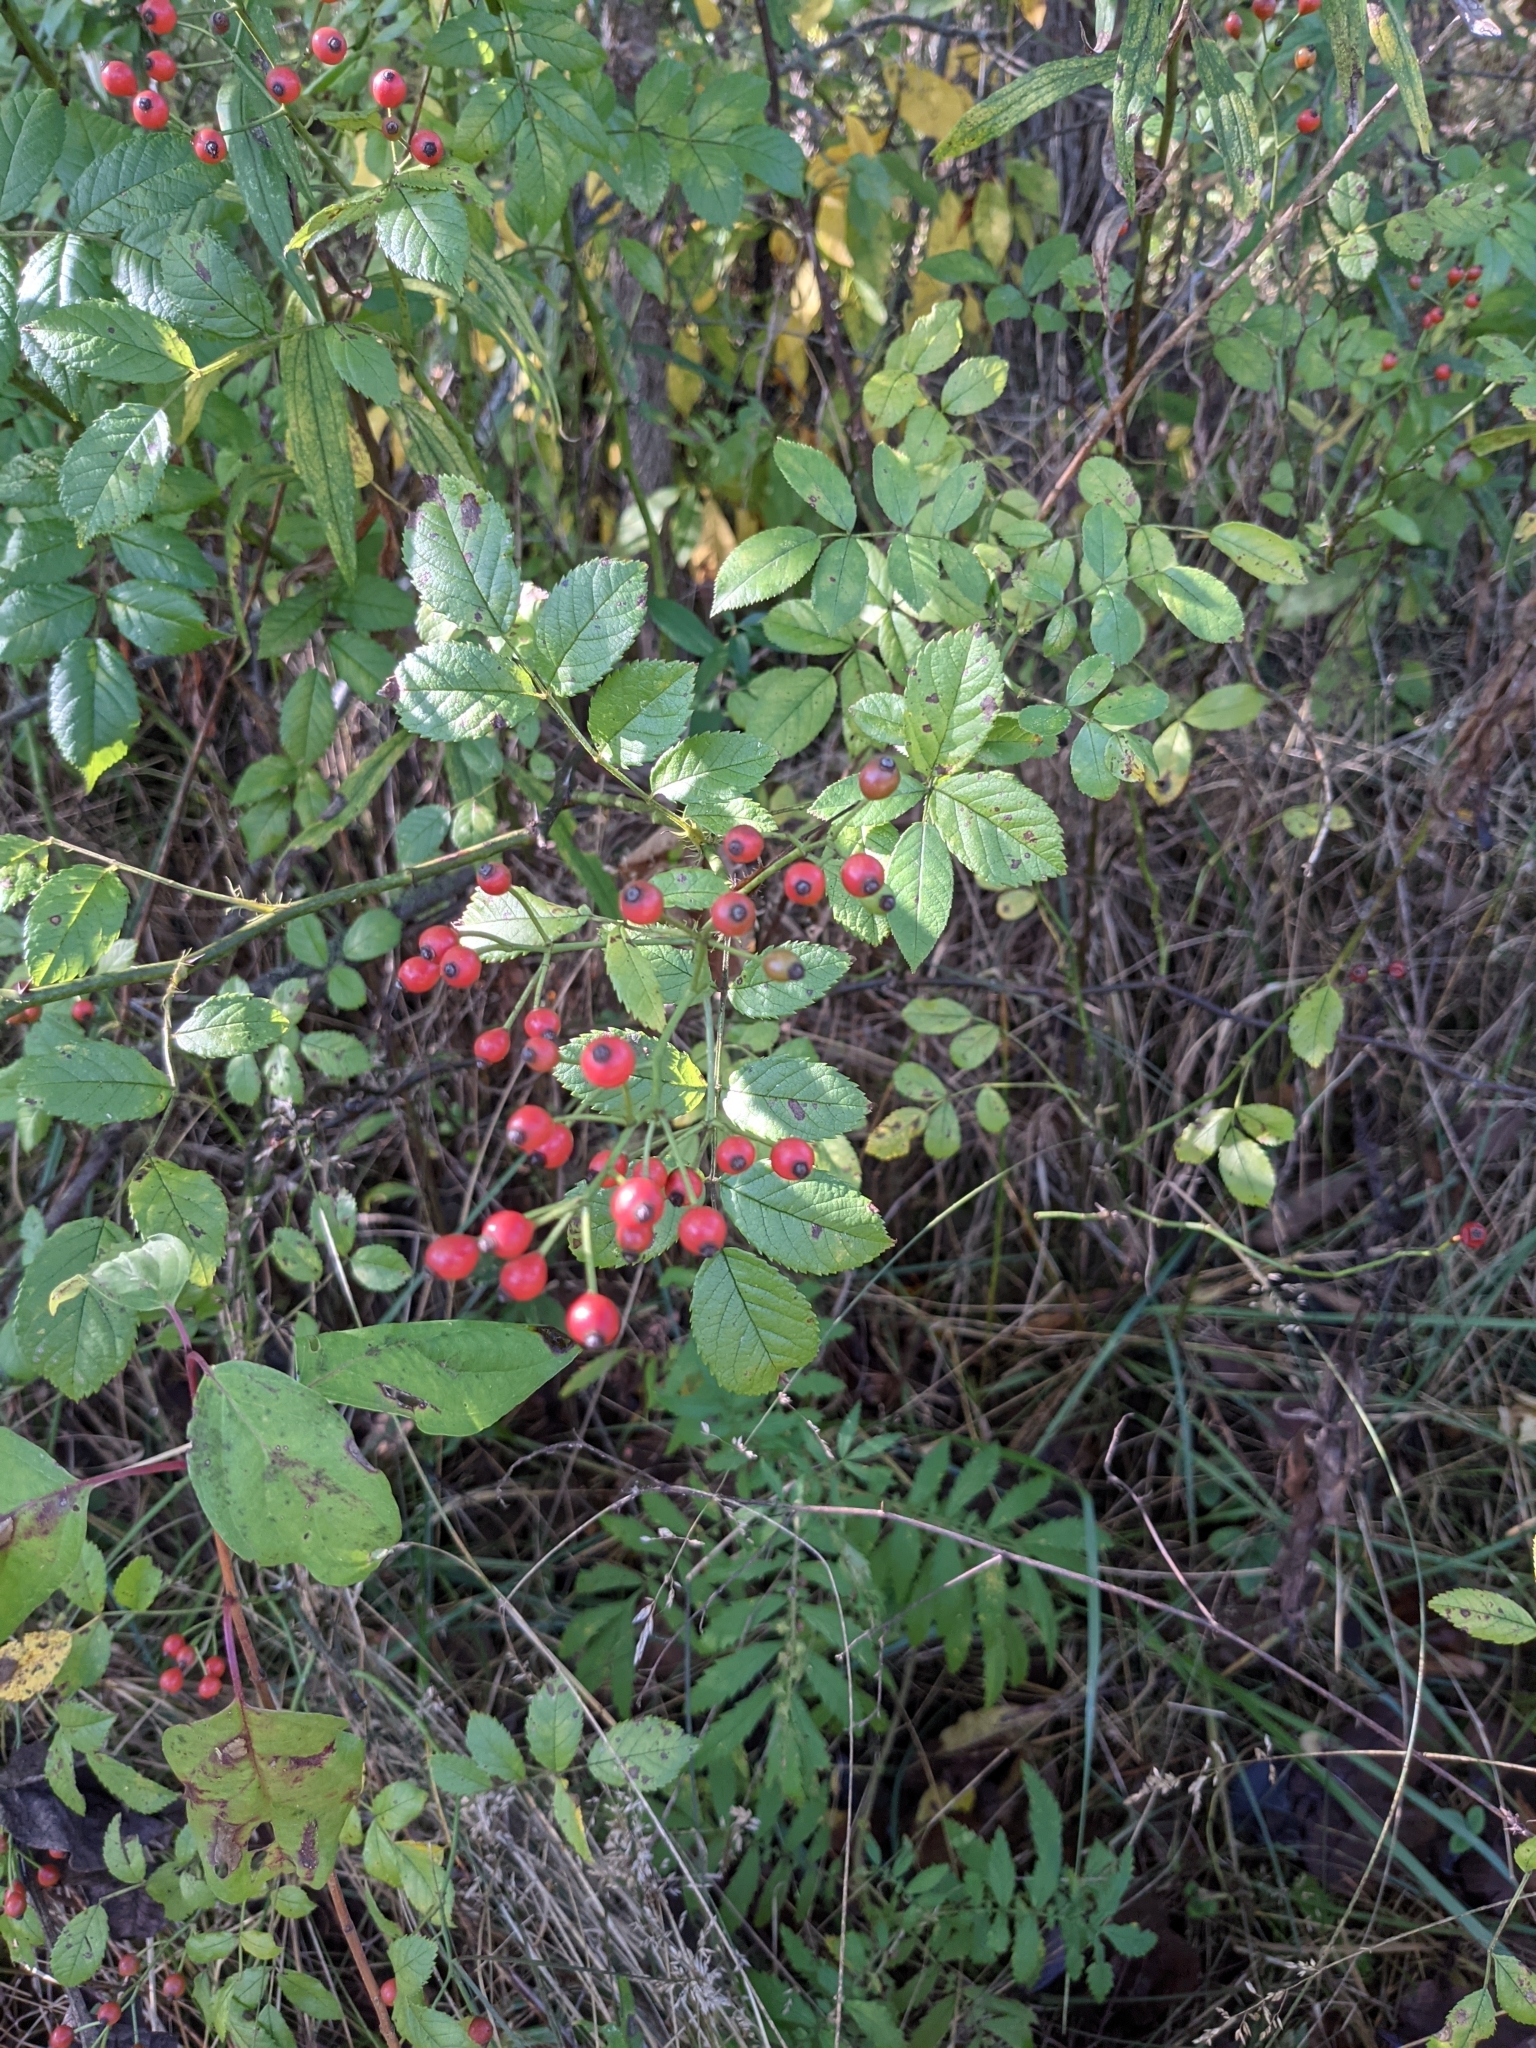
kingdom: Plantae
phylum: Tracheophyta
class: Magnoliopsida
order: Rosales
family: Rosaceae
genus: Rosa
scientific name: Rosa multiflora
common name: Multiflora rose
